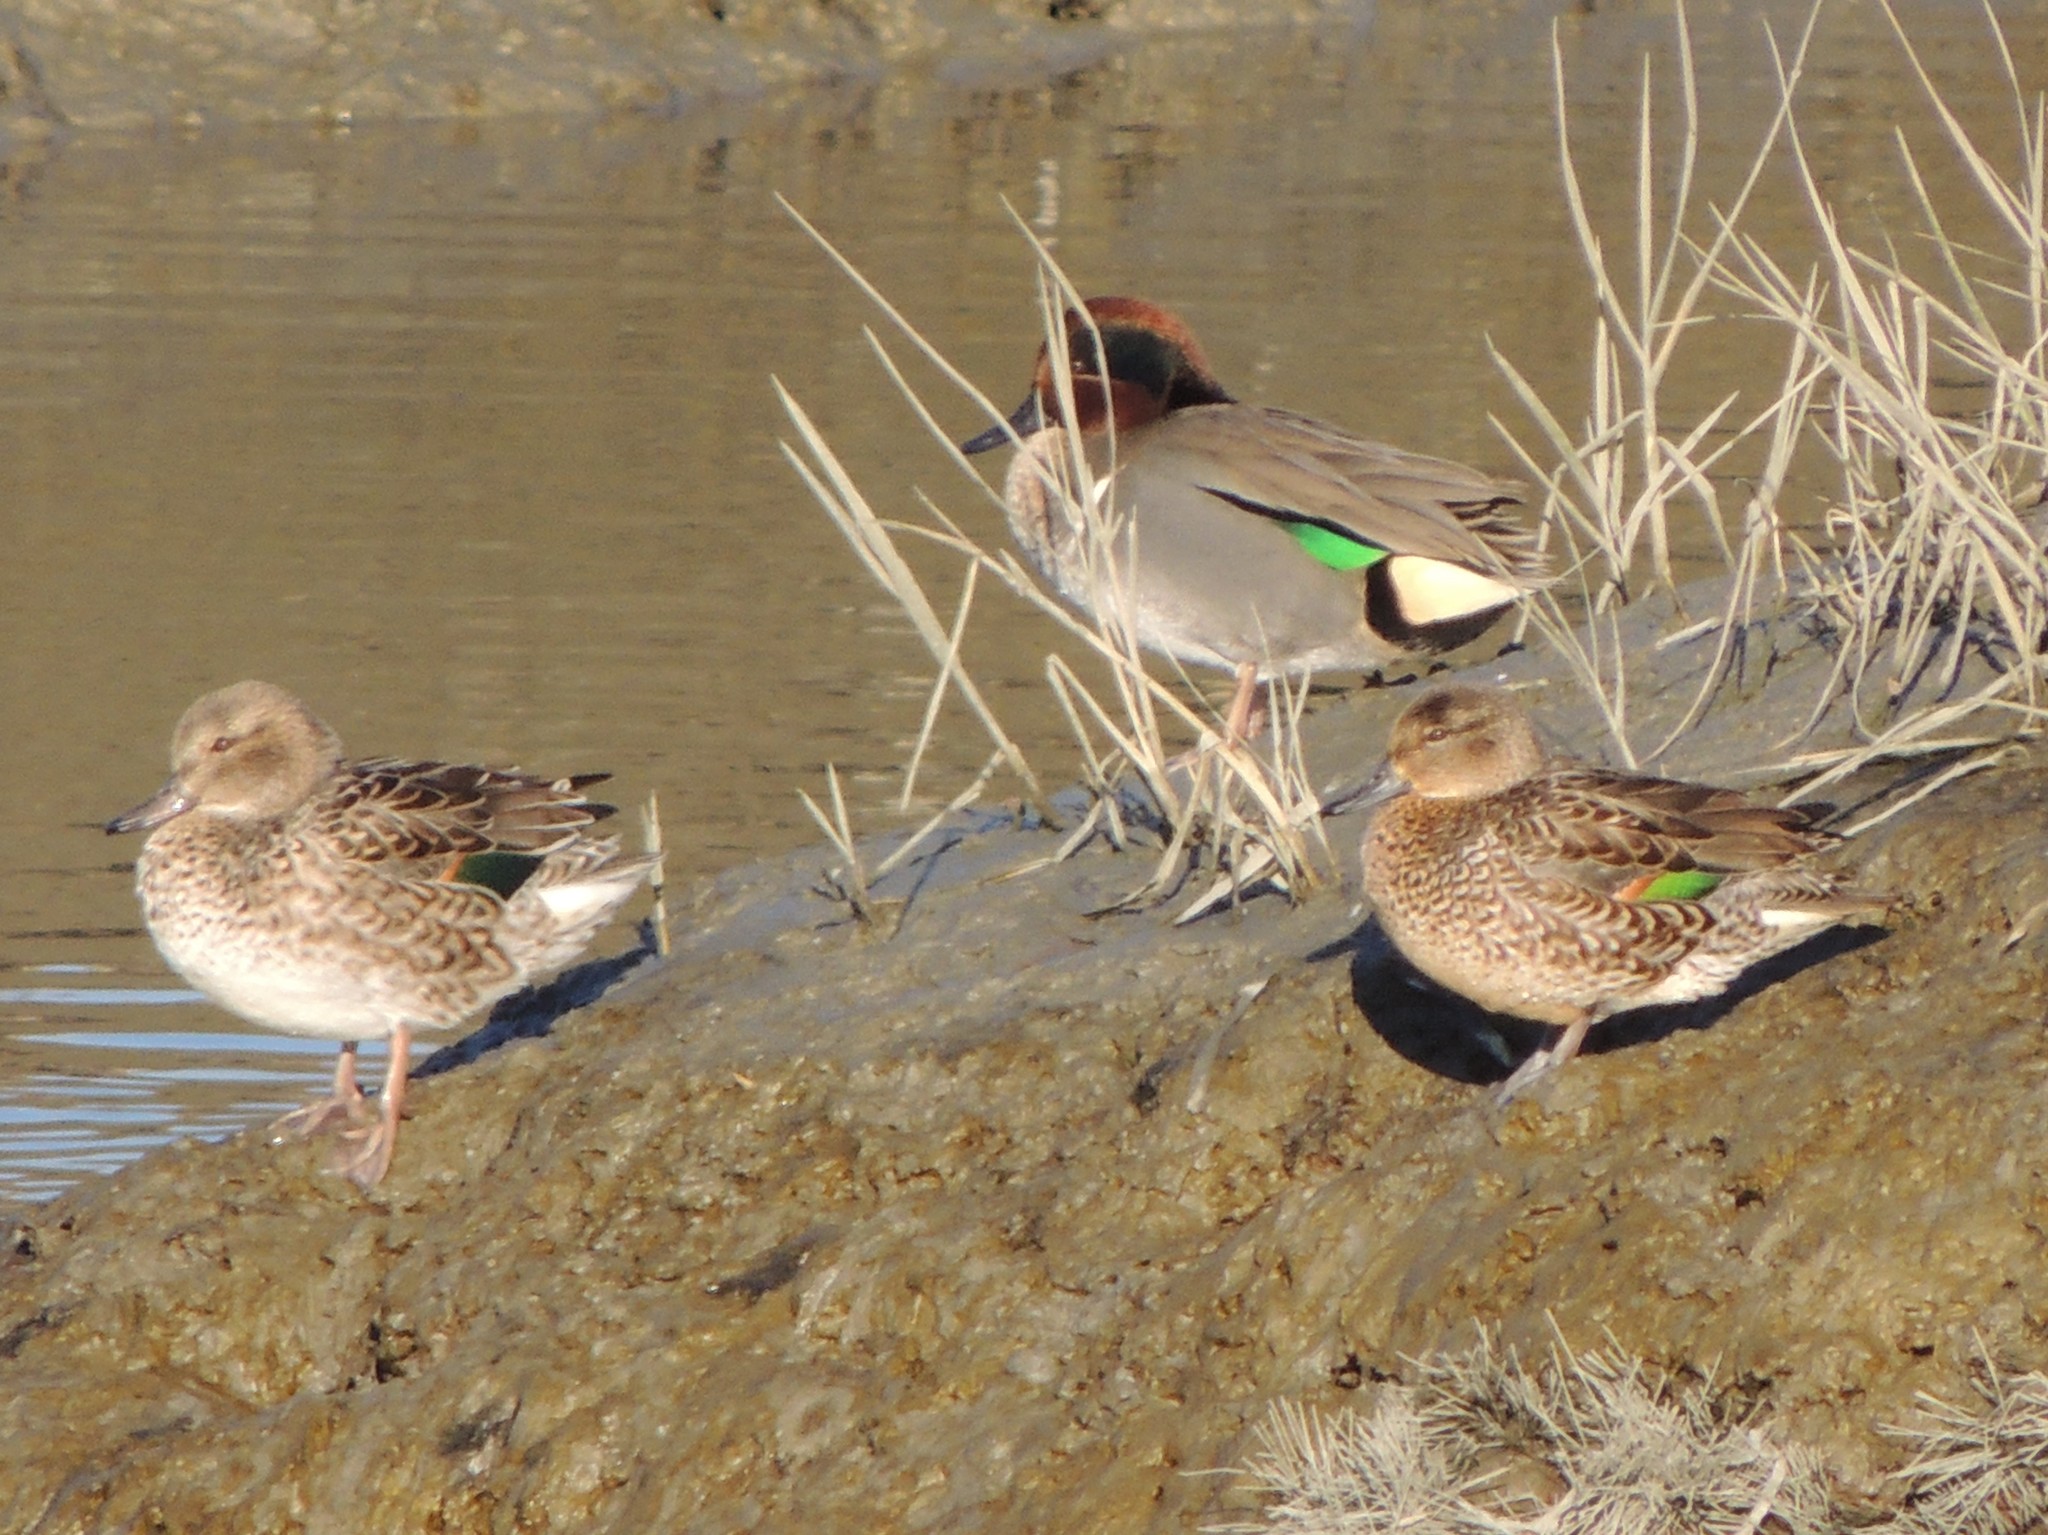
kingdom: Animalia
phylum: Chordata
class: Aves
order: Anseriformes
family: Anatidae
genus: Anas
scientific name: Anas crecca
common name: Eurasian teal
